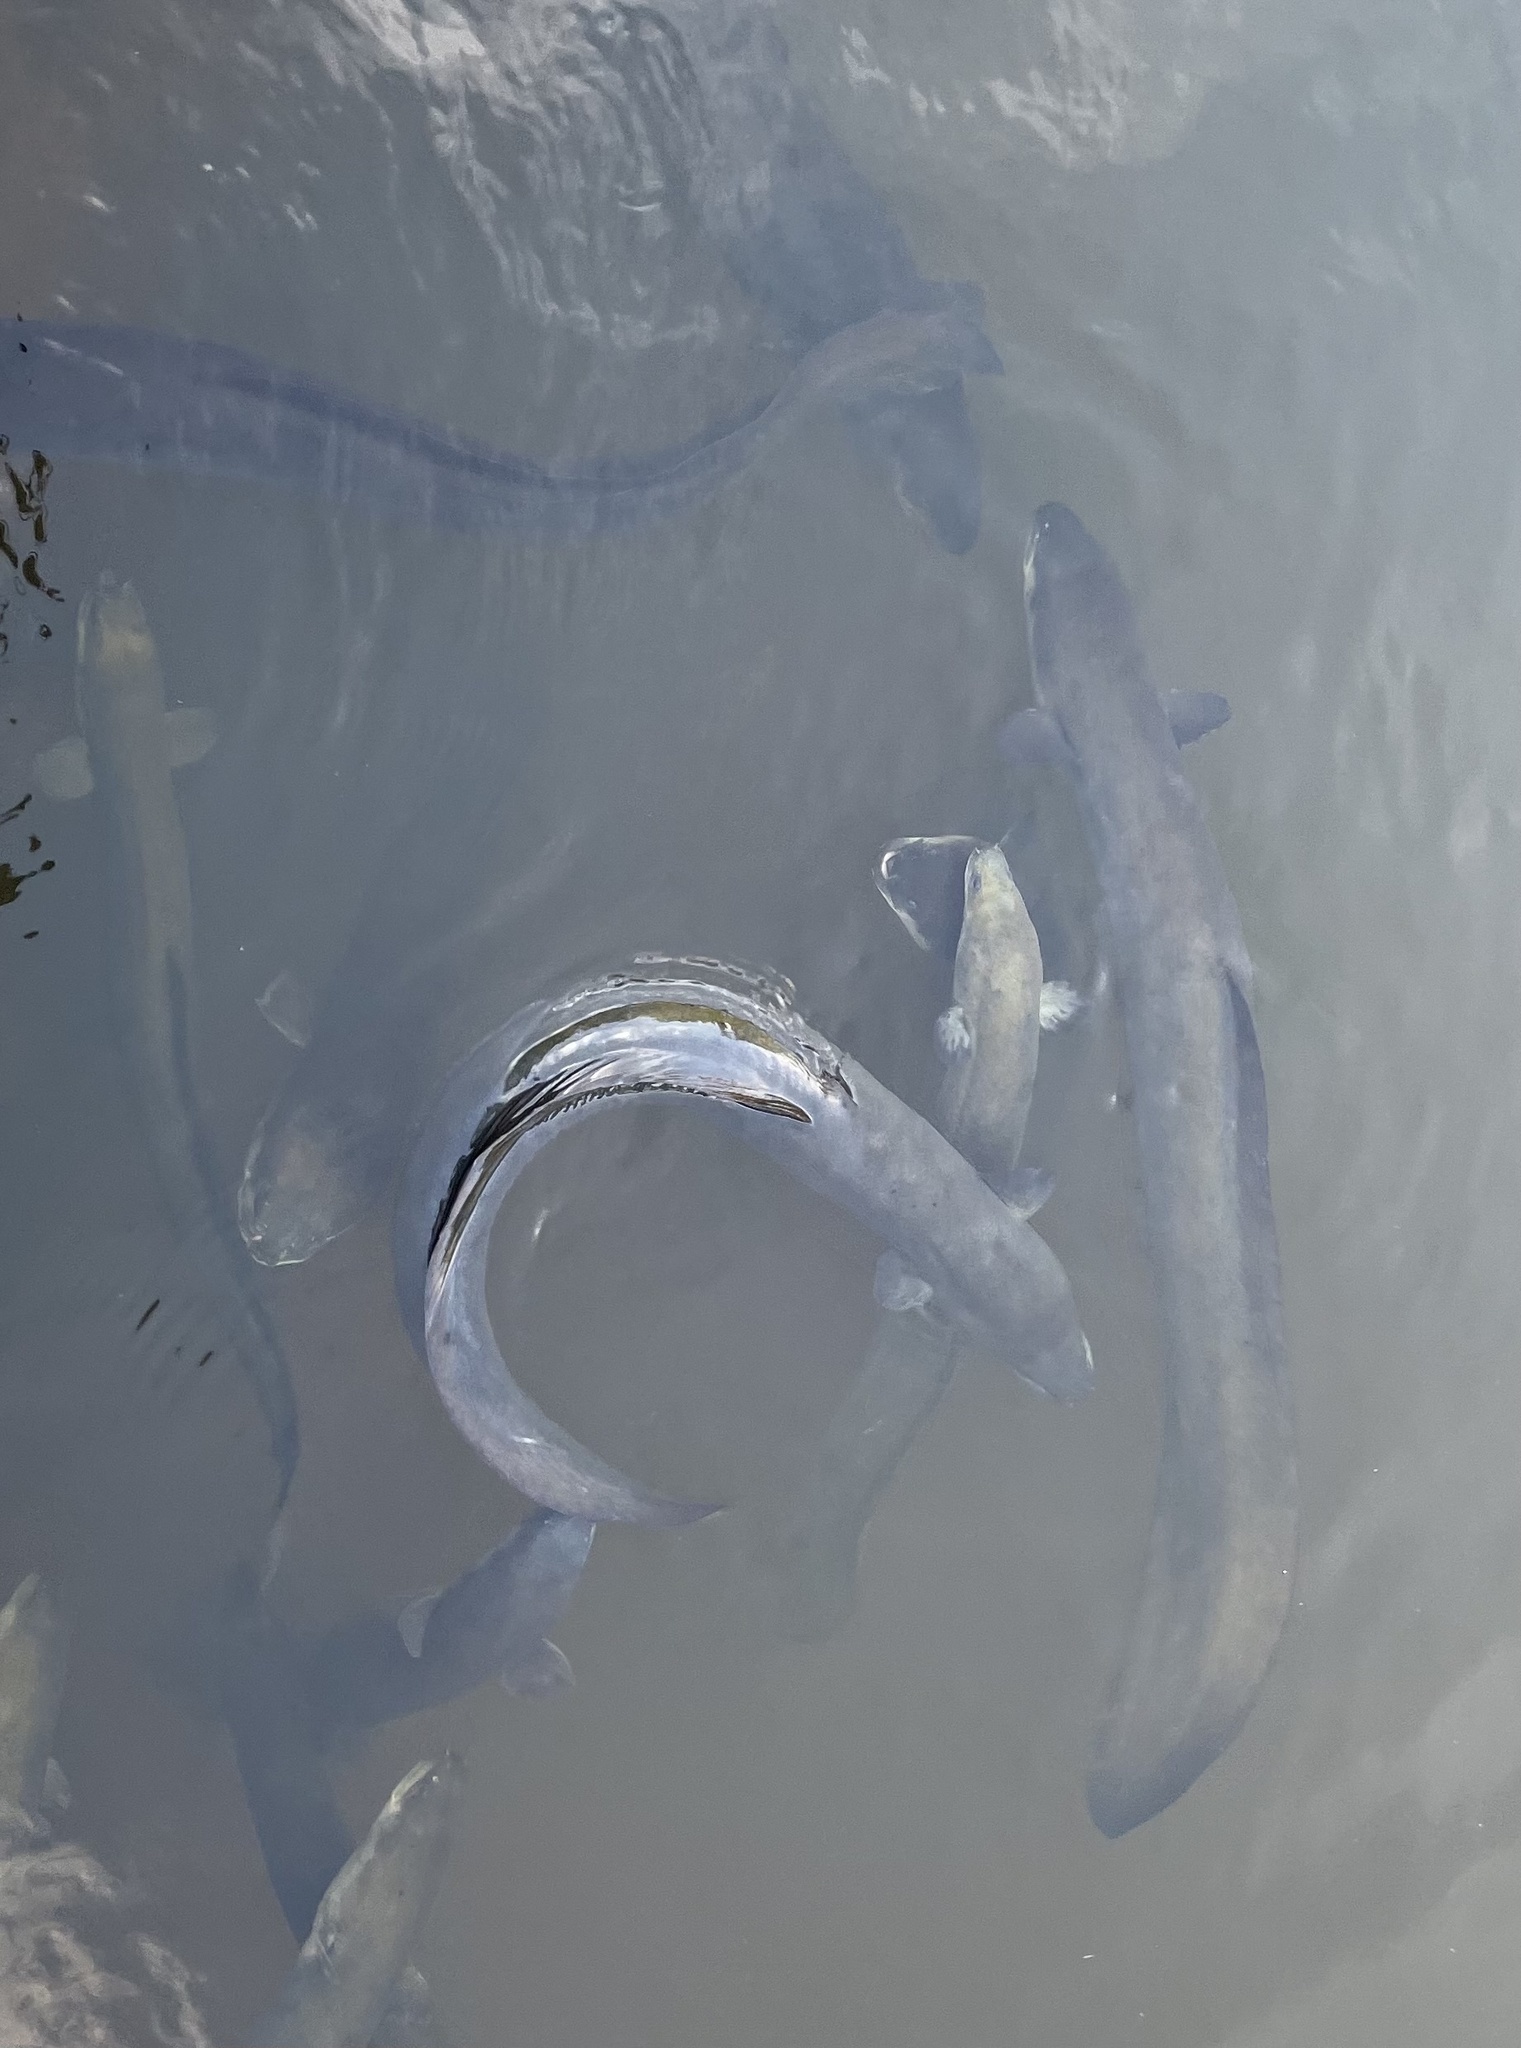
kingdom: Animalia
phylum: Chordata
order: Anguilliformes
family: Anguillidae
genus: Anguilla
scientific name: Anguilla dieffenbachii
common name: New zealand longfin eel
